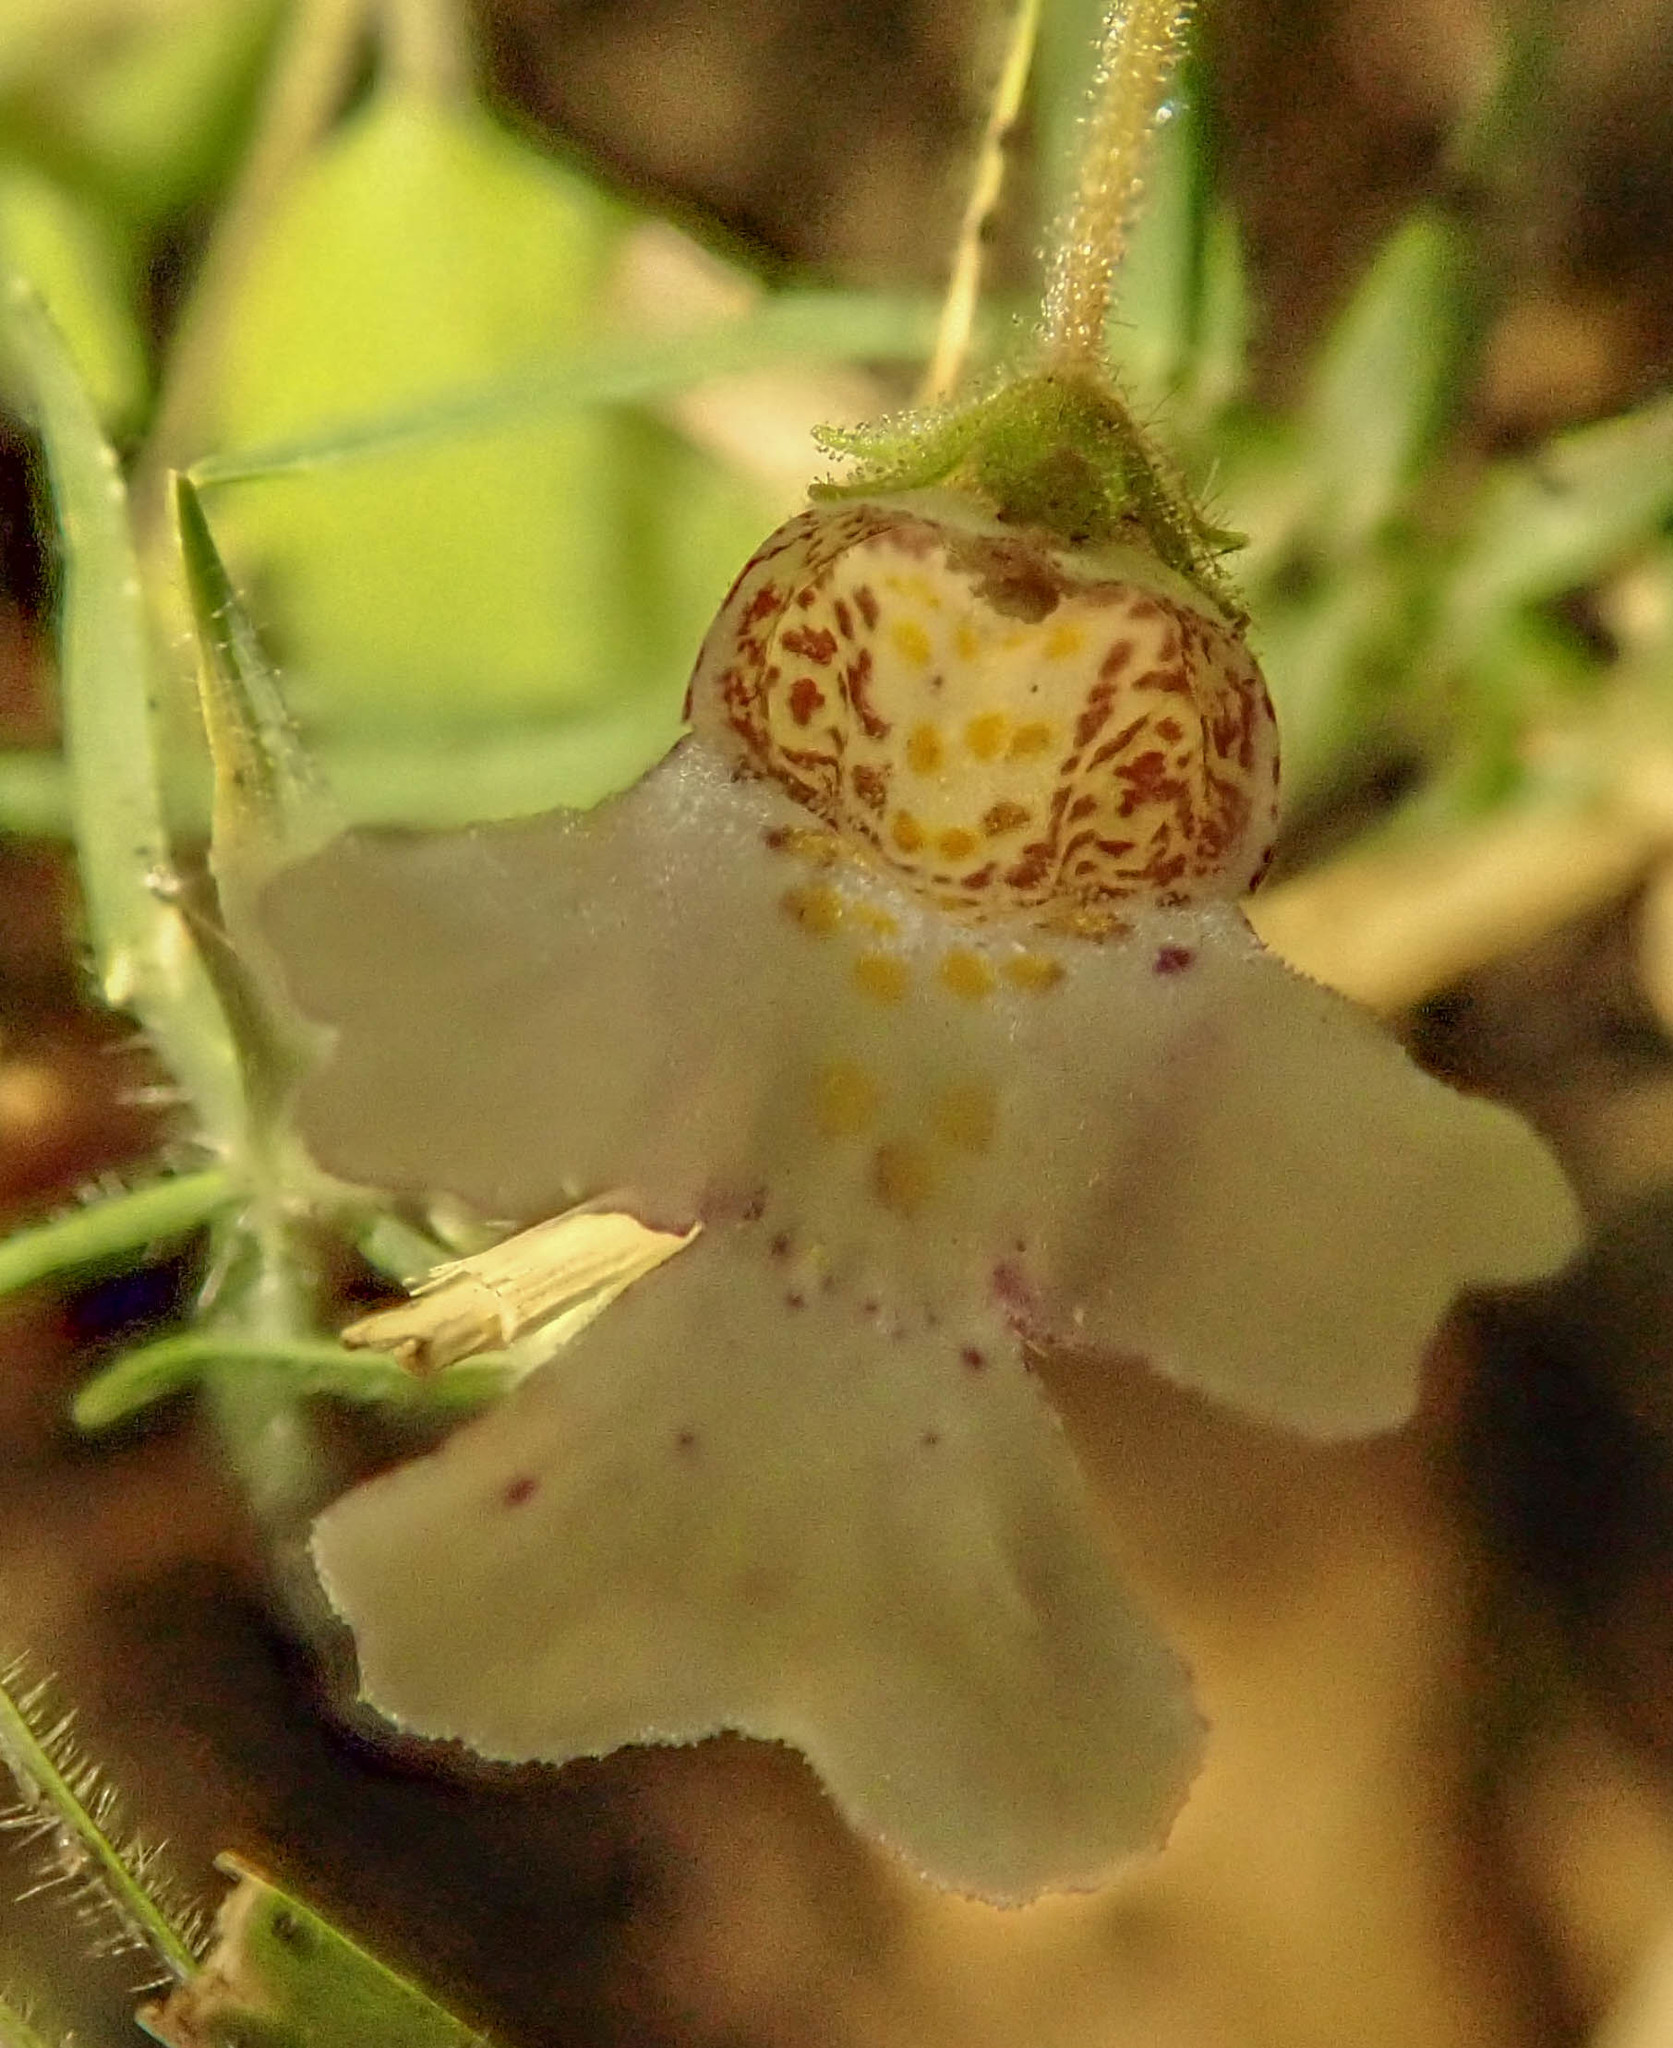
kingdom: Plantae
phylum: Tracheophyta
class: Magnoliopsida
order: Lamiales
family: Scrophulariaceae
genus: Diclis
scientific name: Diclis petiolaris
